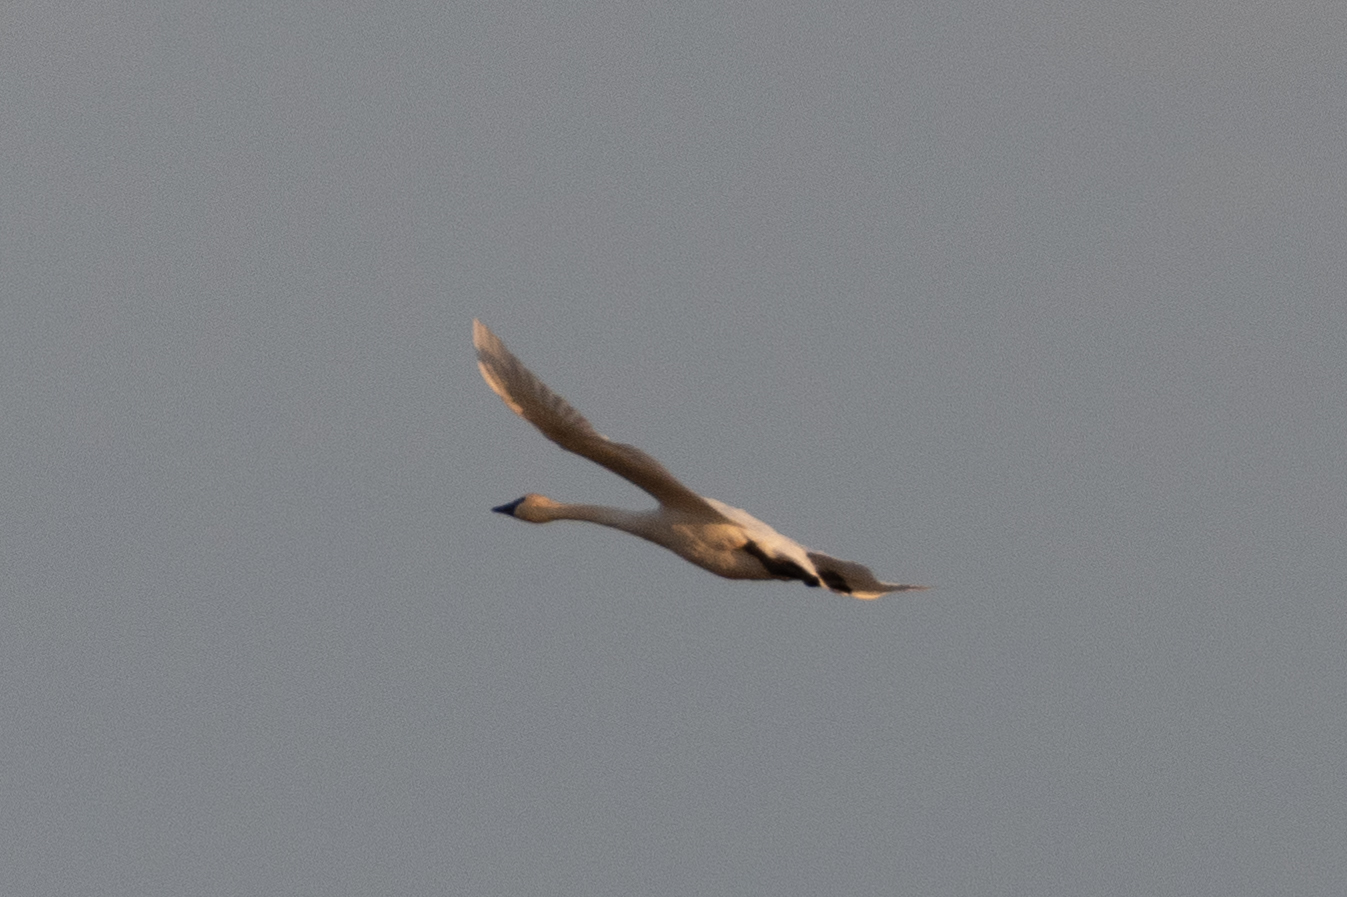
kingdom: Animalia
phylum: Chordata
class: Aves
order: Anseriformes
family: Anatidae
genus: Cygnus
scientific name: Cygnus columbianus
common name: Tundra swan
